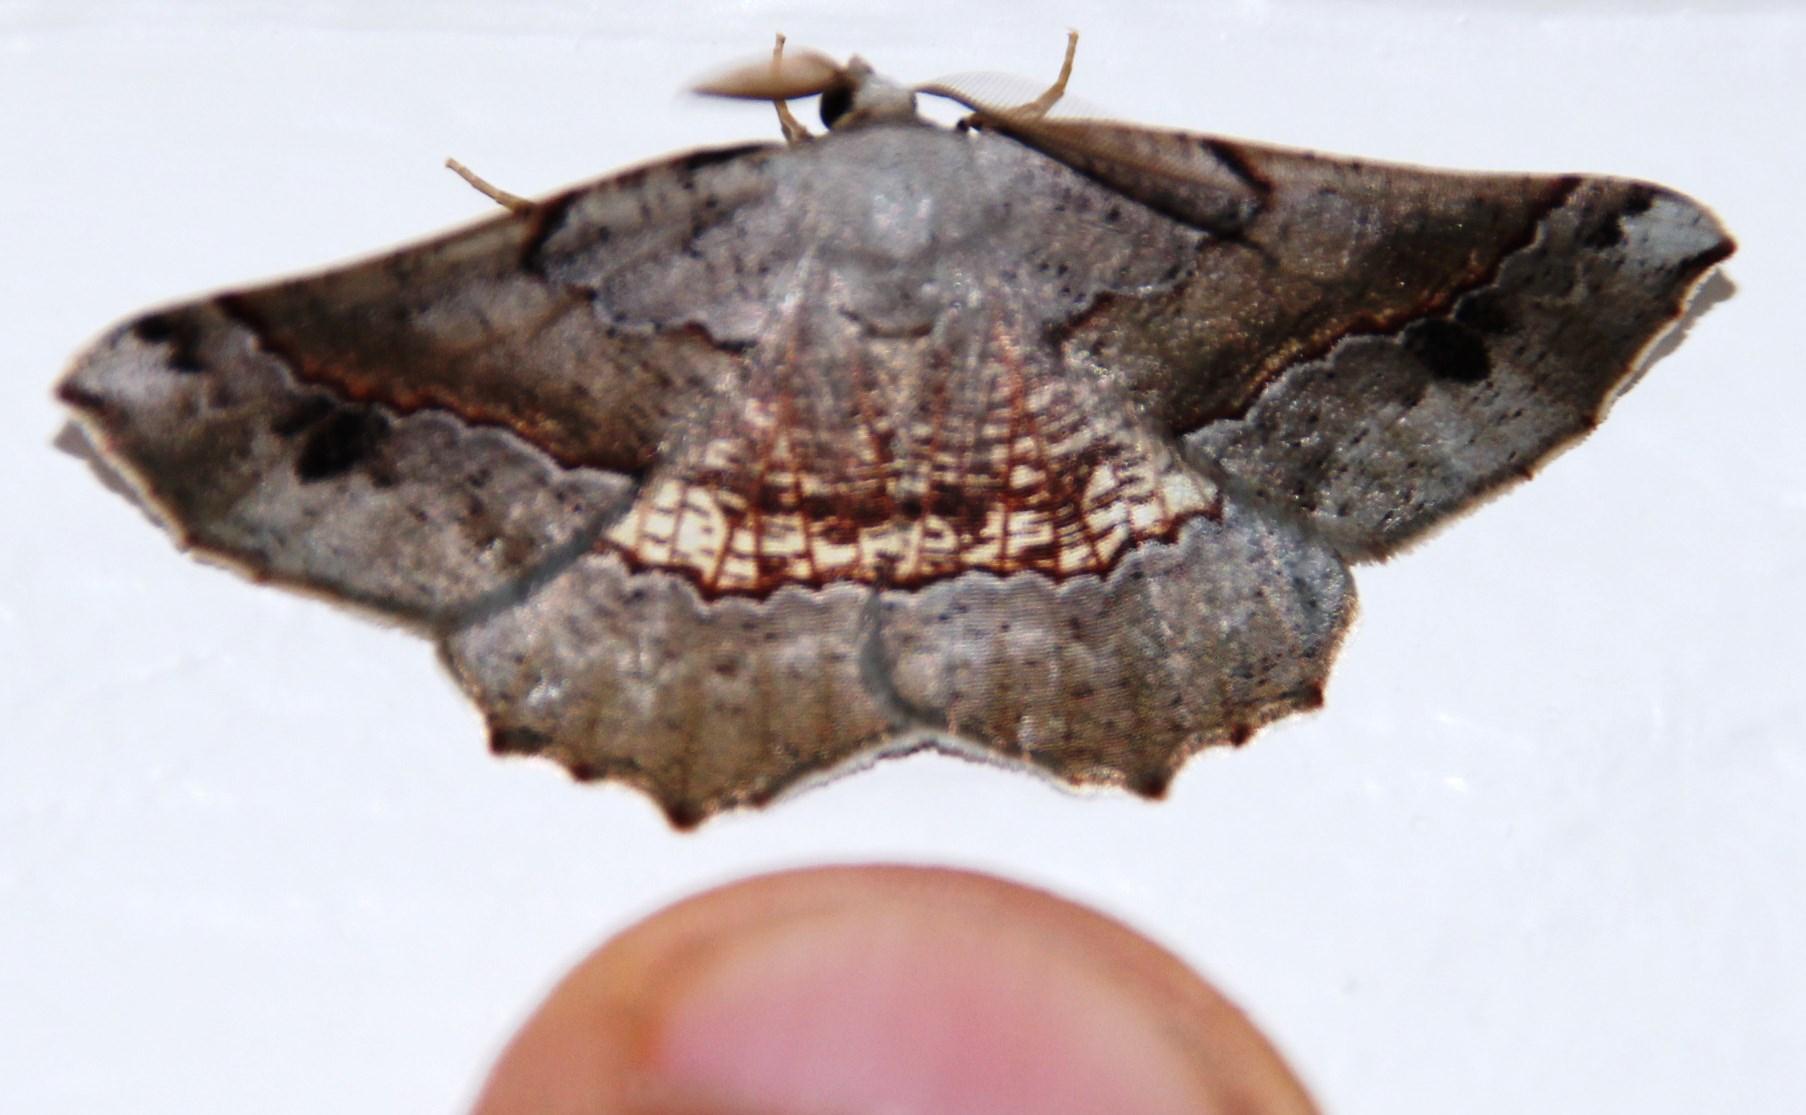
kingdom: Animalia
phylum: Arthropoda
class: Insecta
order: Lepidoptera
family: Geometridae
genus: Drepanogynis
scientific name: Drepanogynis mixtaria
